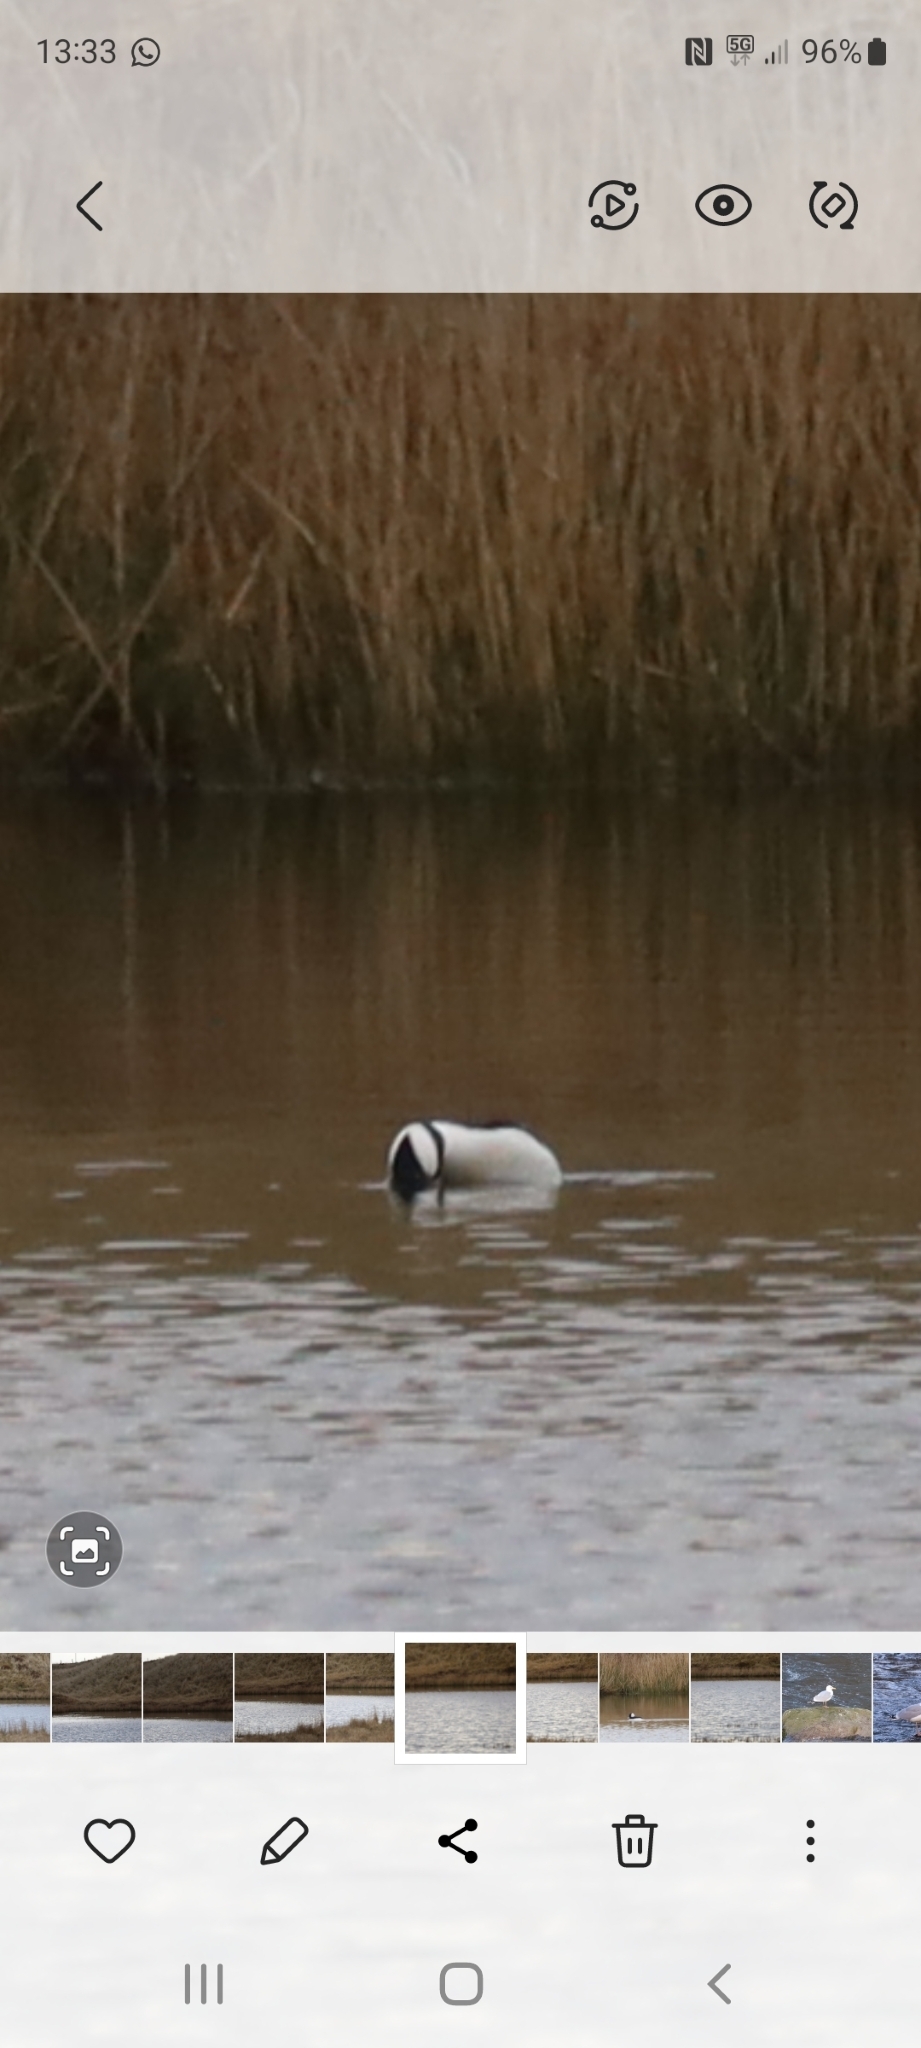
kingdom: Animalia
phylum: Chordata
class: Aves
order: Anseriformes
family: Anatidae
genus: Bucephala
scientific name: Bucephala albeola
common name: Bufflehead
